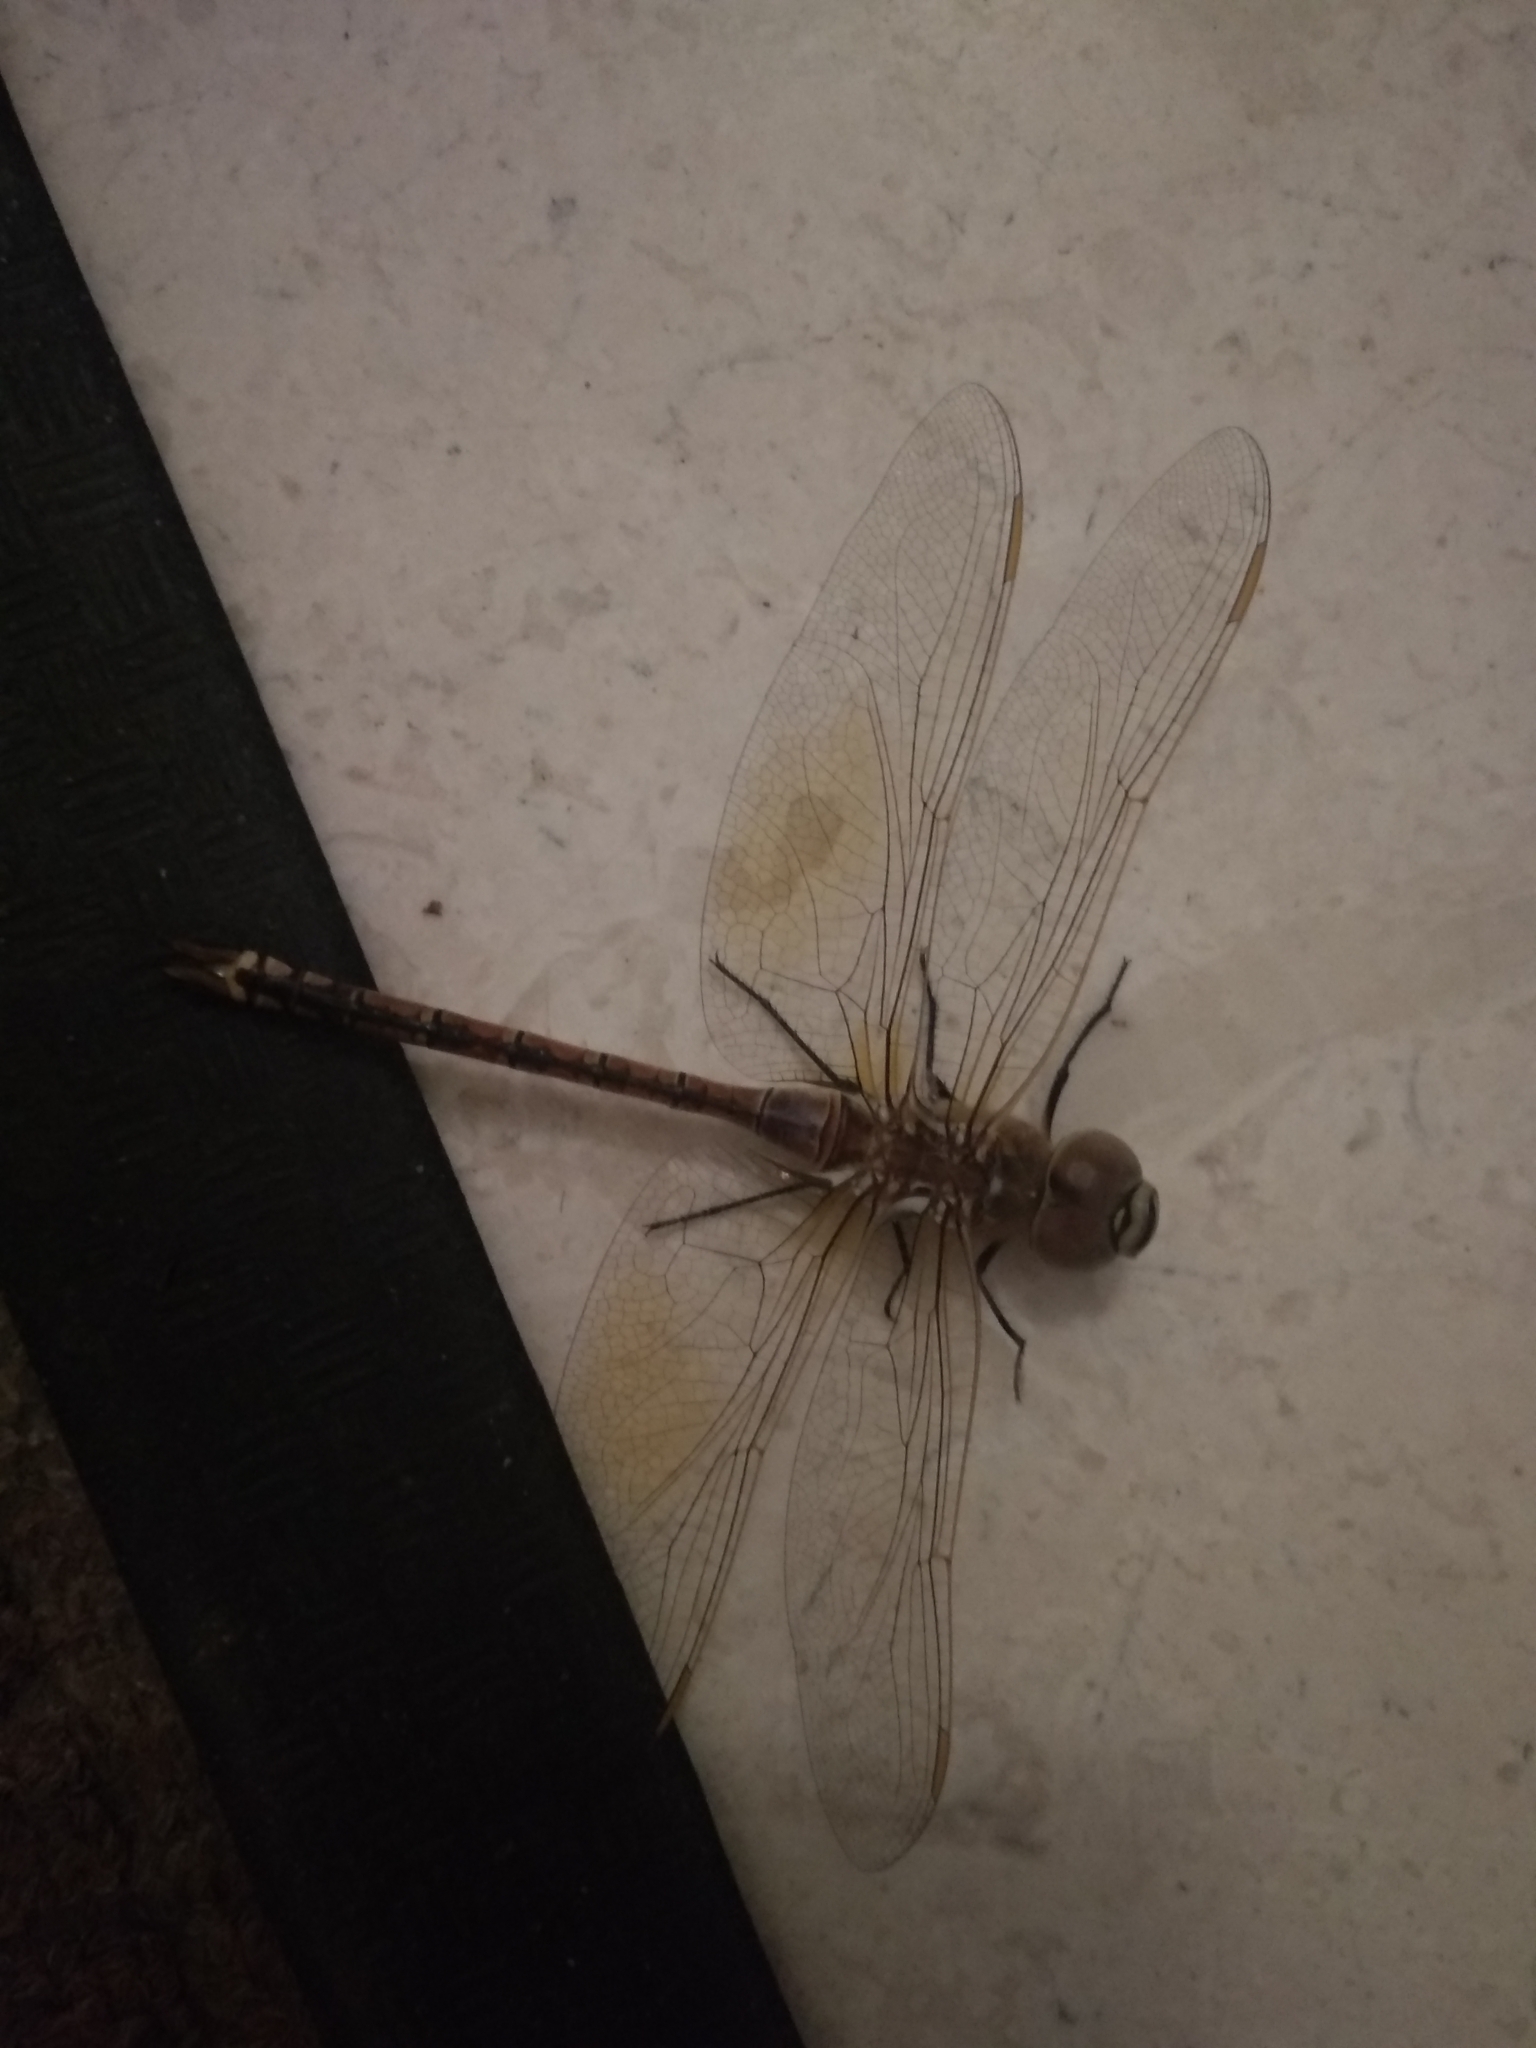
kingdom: Animalia
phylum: Arthropoda
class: Insecta
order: Odonata
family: Aeshnidae
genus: Anax
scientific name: Anax ephippiger
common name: Vagrant emperor
